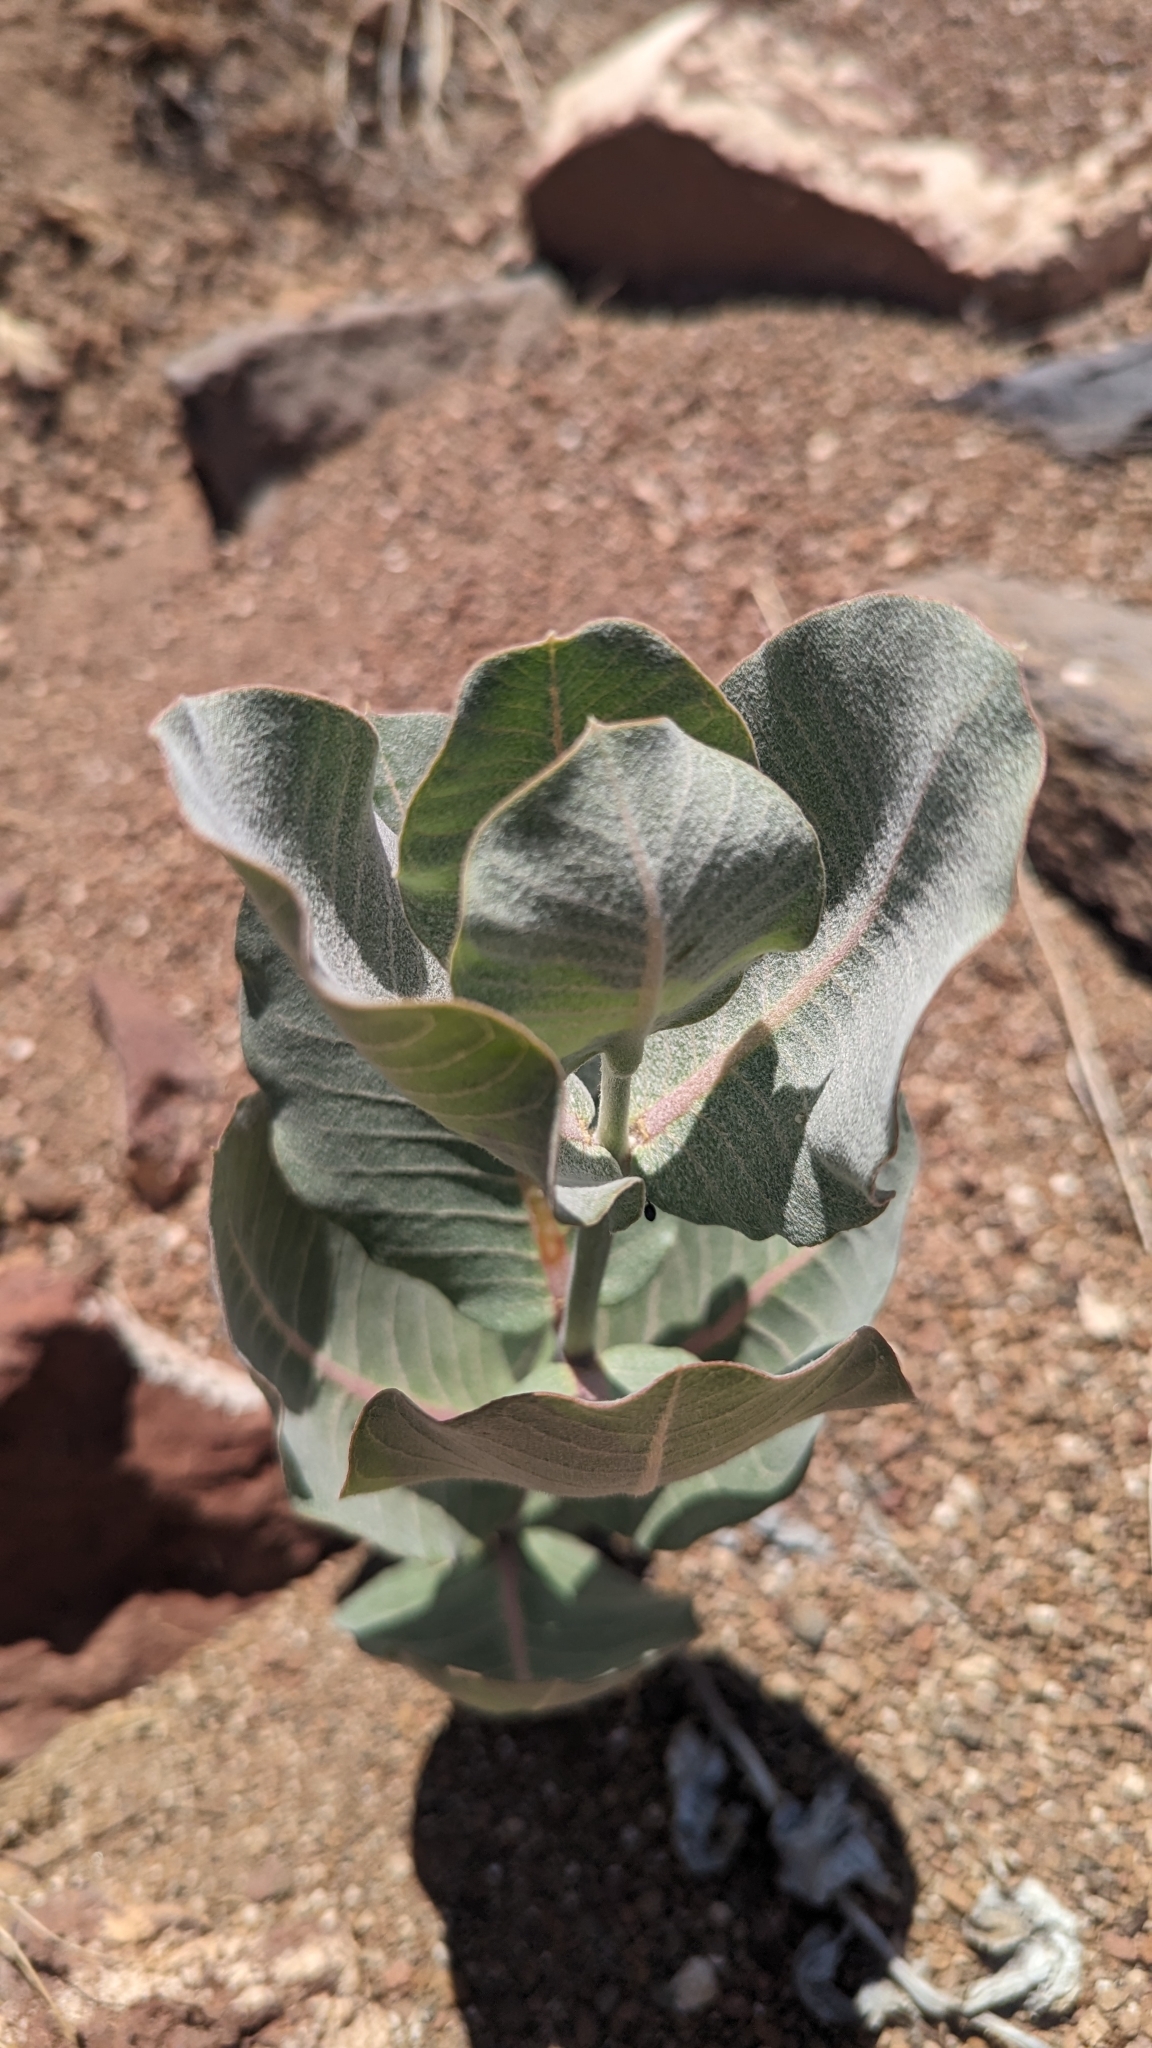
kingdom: Plantae
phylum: Tracheophyta
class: Magnoliopsida
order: Gentianales
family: Apocynaceae
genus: Asclepias
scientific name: Asclepias latifolia
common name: Broadleaf milkweed
